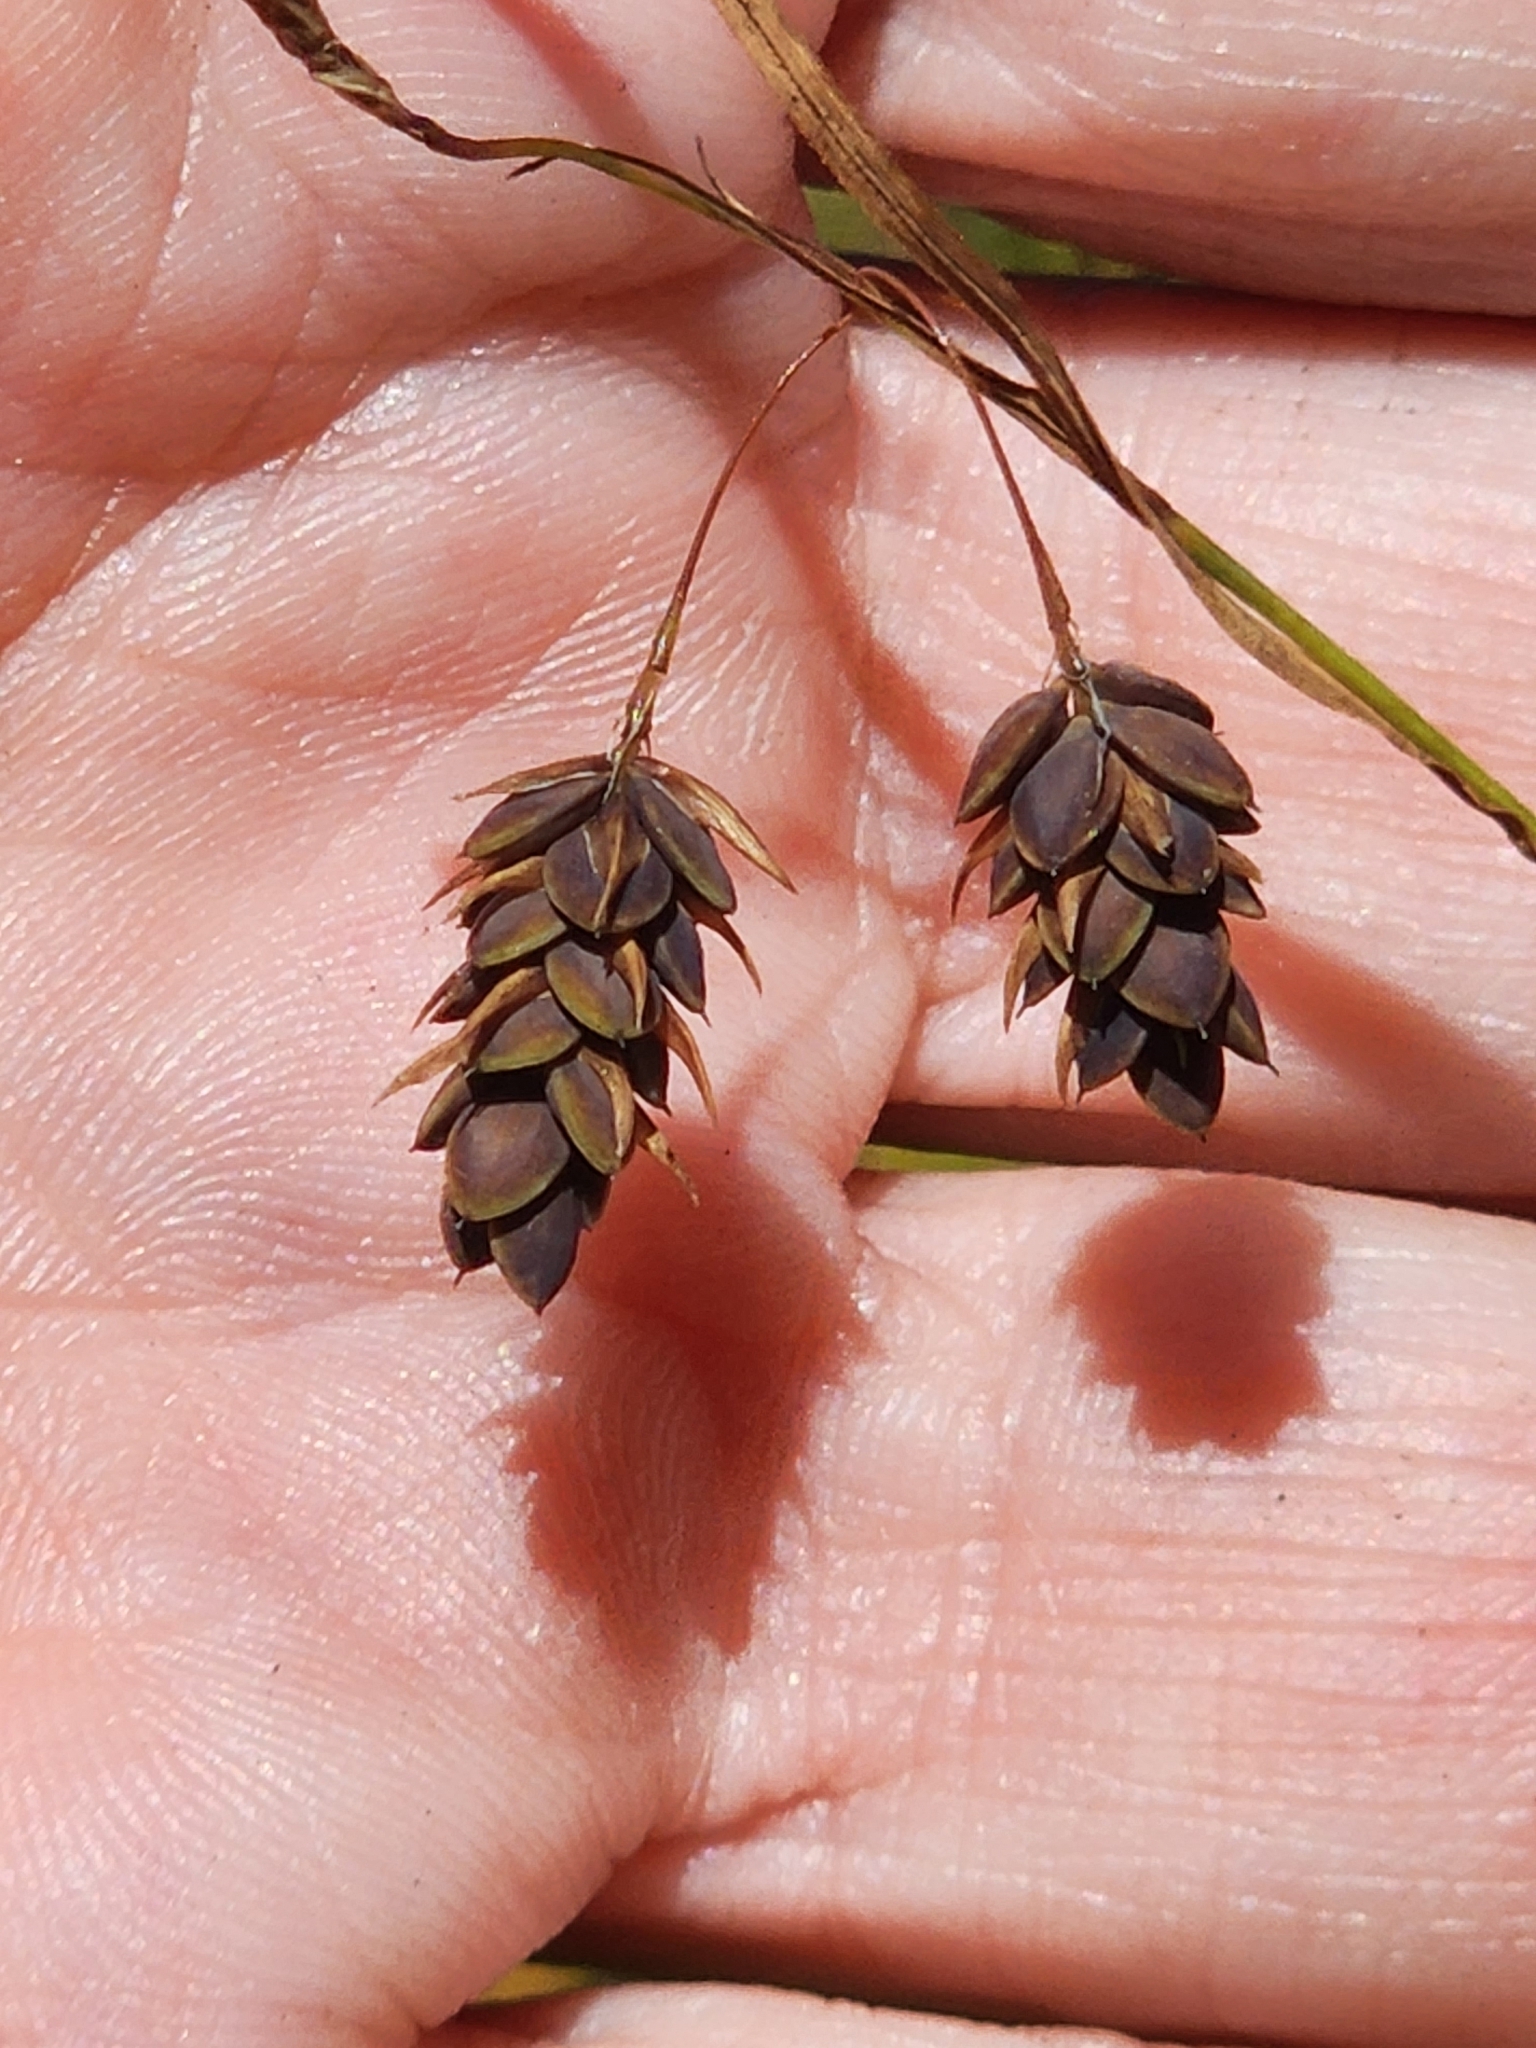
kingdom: Plantae
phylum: Tracheophyta
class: Liliopsida
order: Poales
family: Cyperaceae
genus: Carex
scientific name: Carex magellanica
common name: Bog sedge
